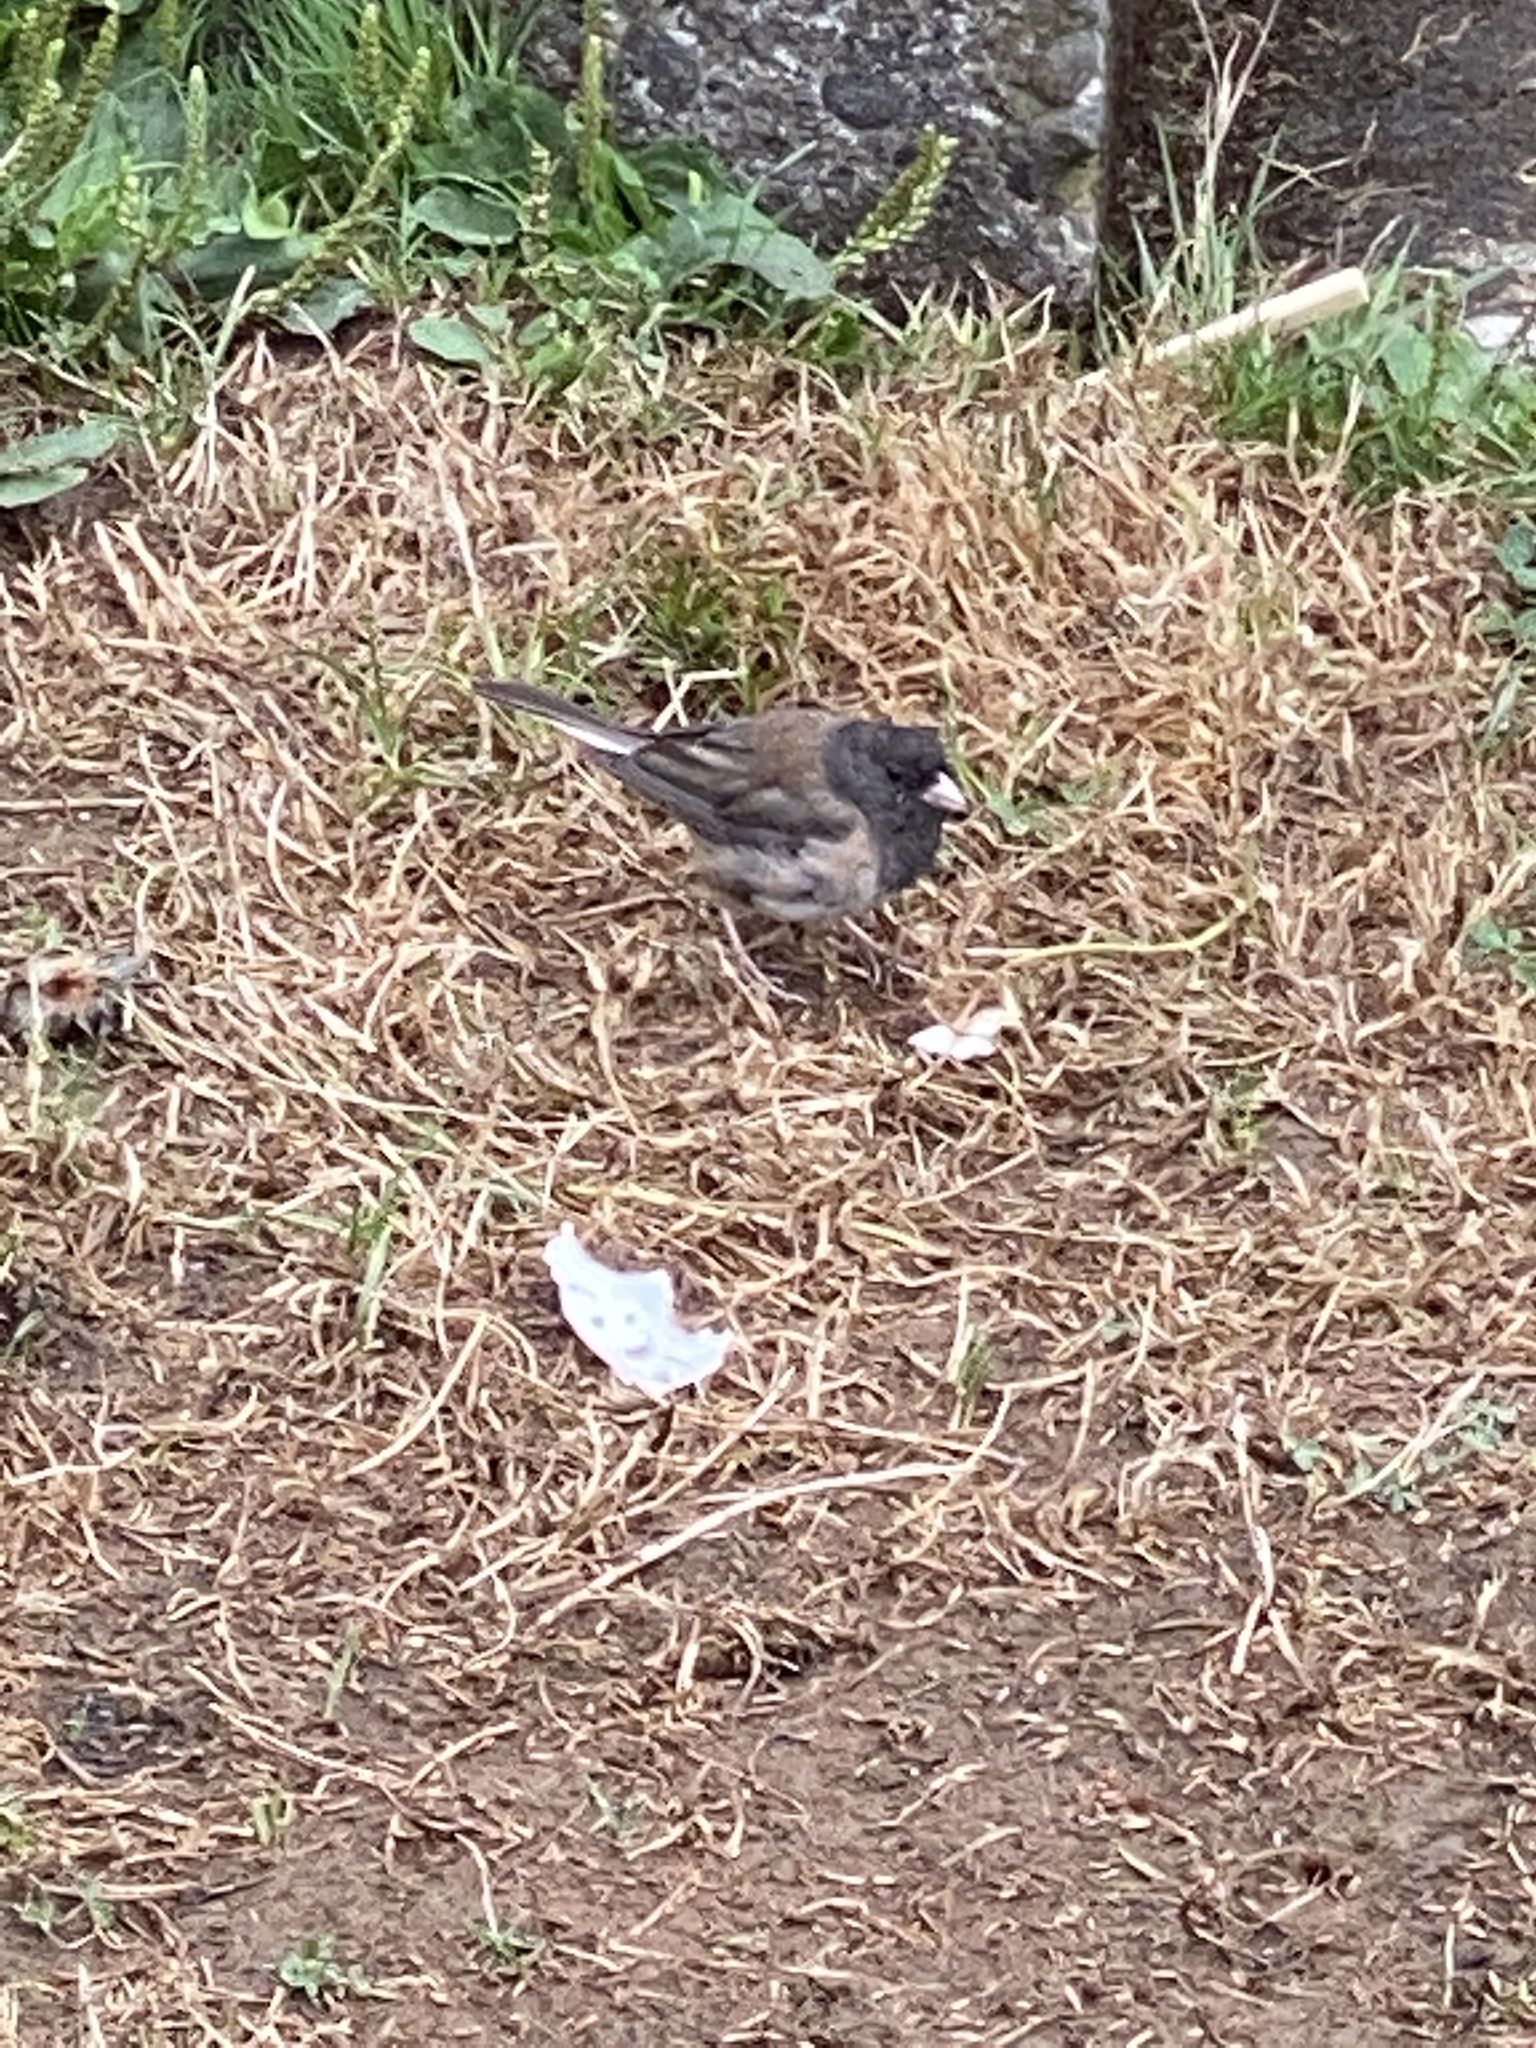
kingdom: Animalia
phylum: Chordata
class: Aves
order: Passeriformes
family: Passerellidae
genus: Junco
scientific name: Junco hyemalis
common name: Dark-eyed junco
